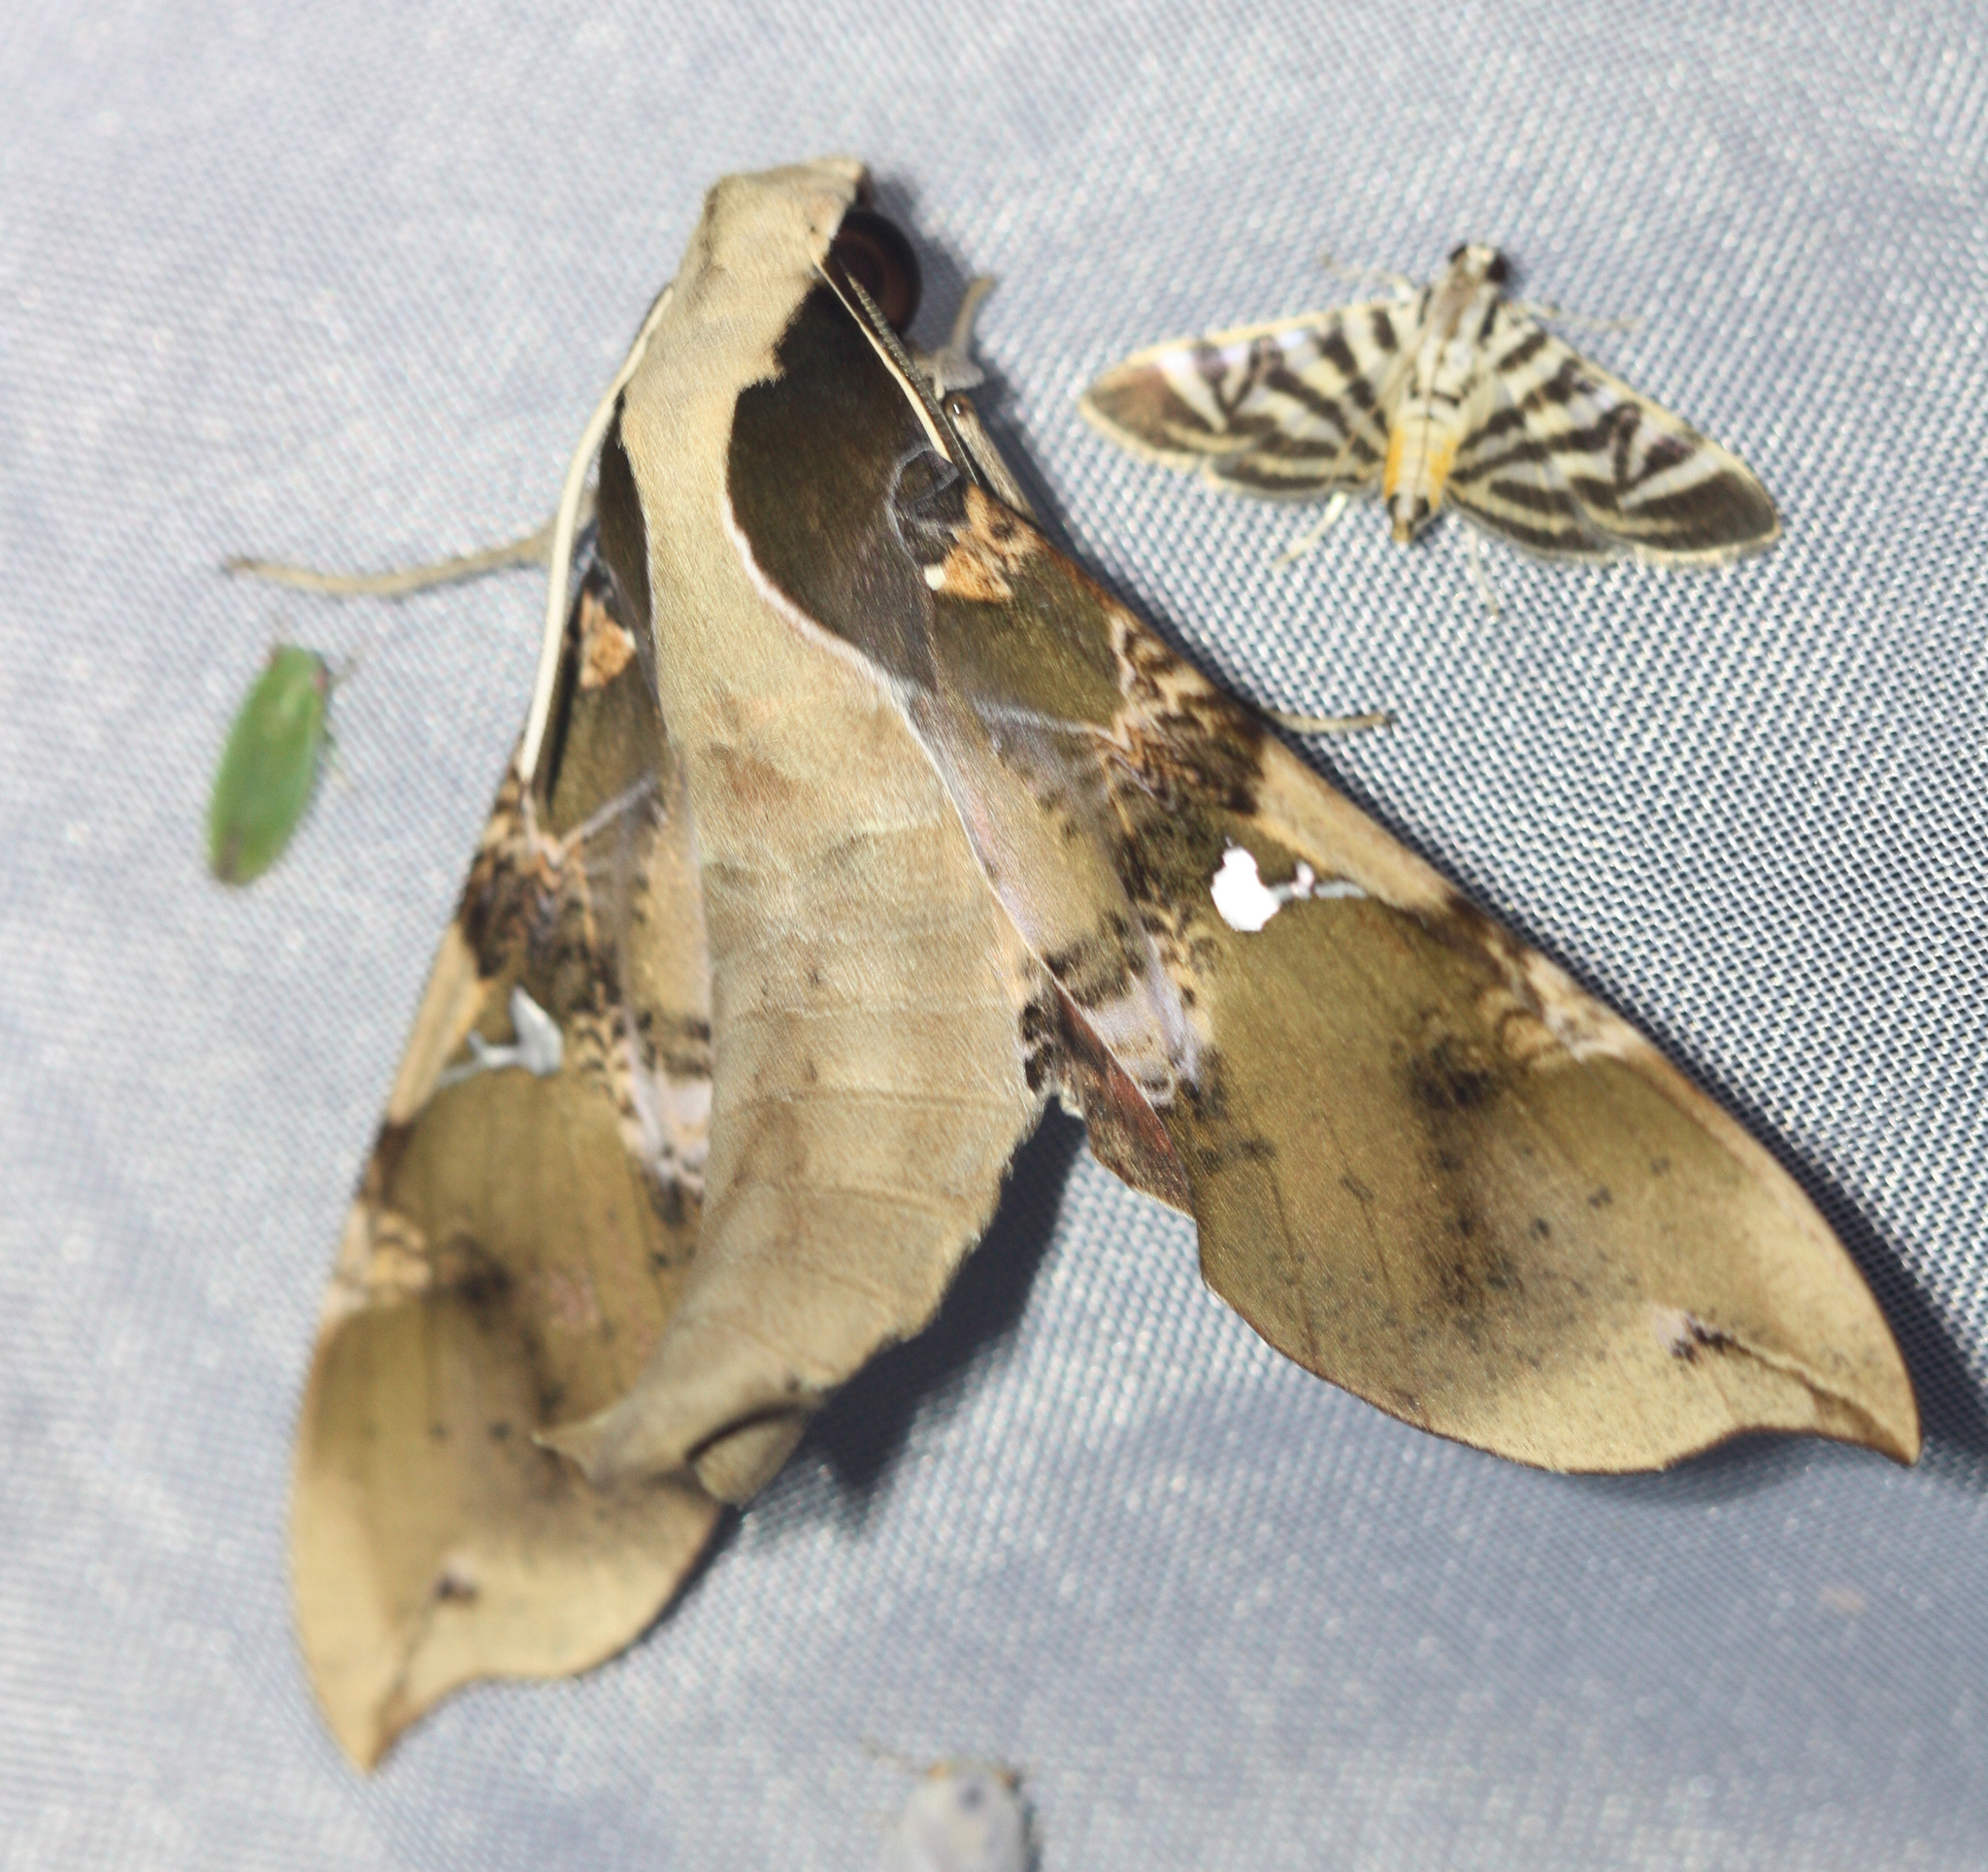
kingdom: Animalia
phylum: Arthropoda
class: Insecta
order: Lepidoptera
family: Sphingidae
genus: Callionima
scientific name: Callionima parce
